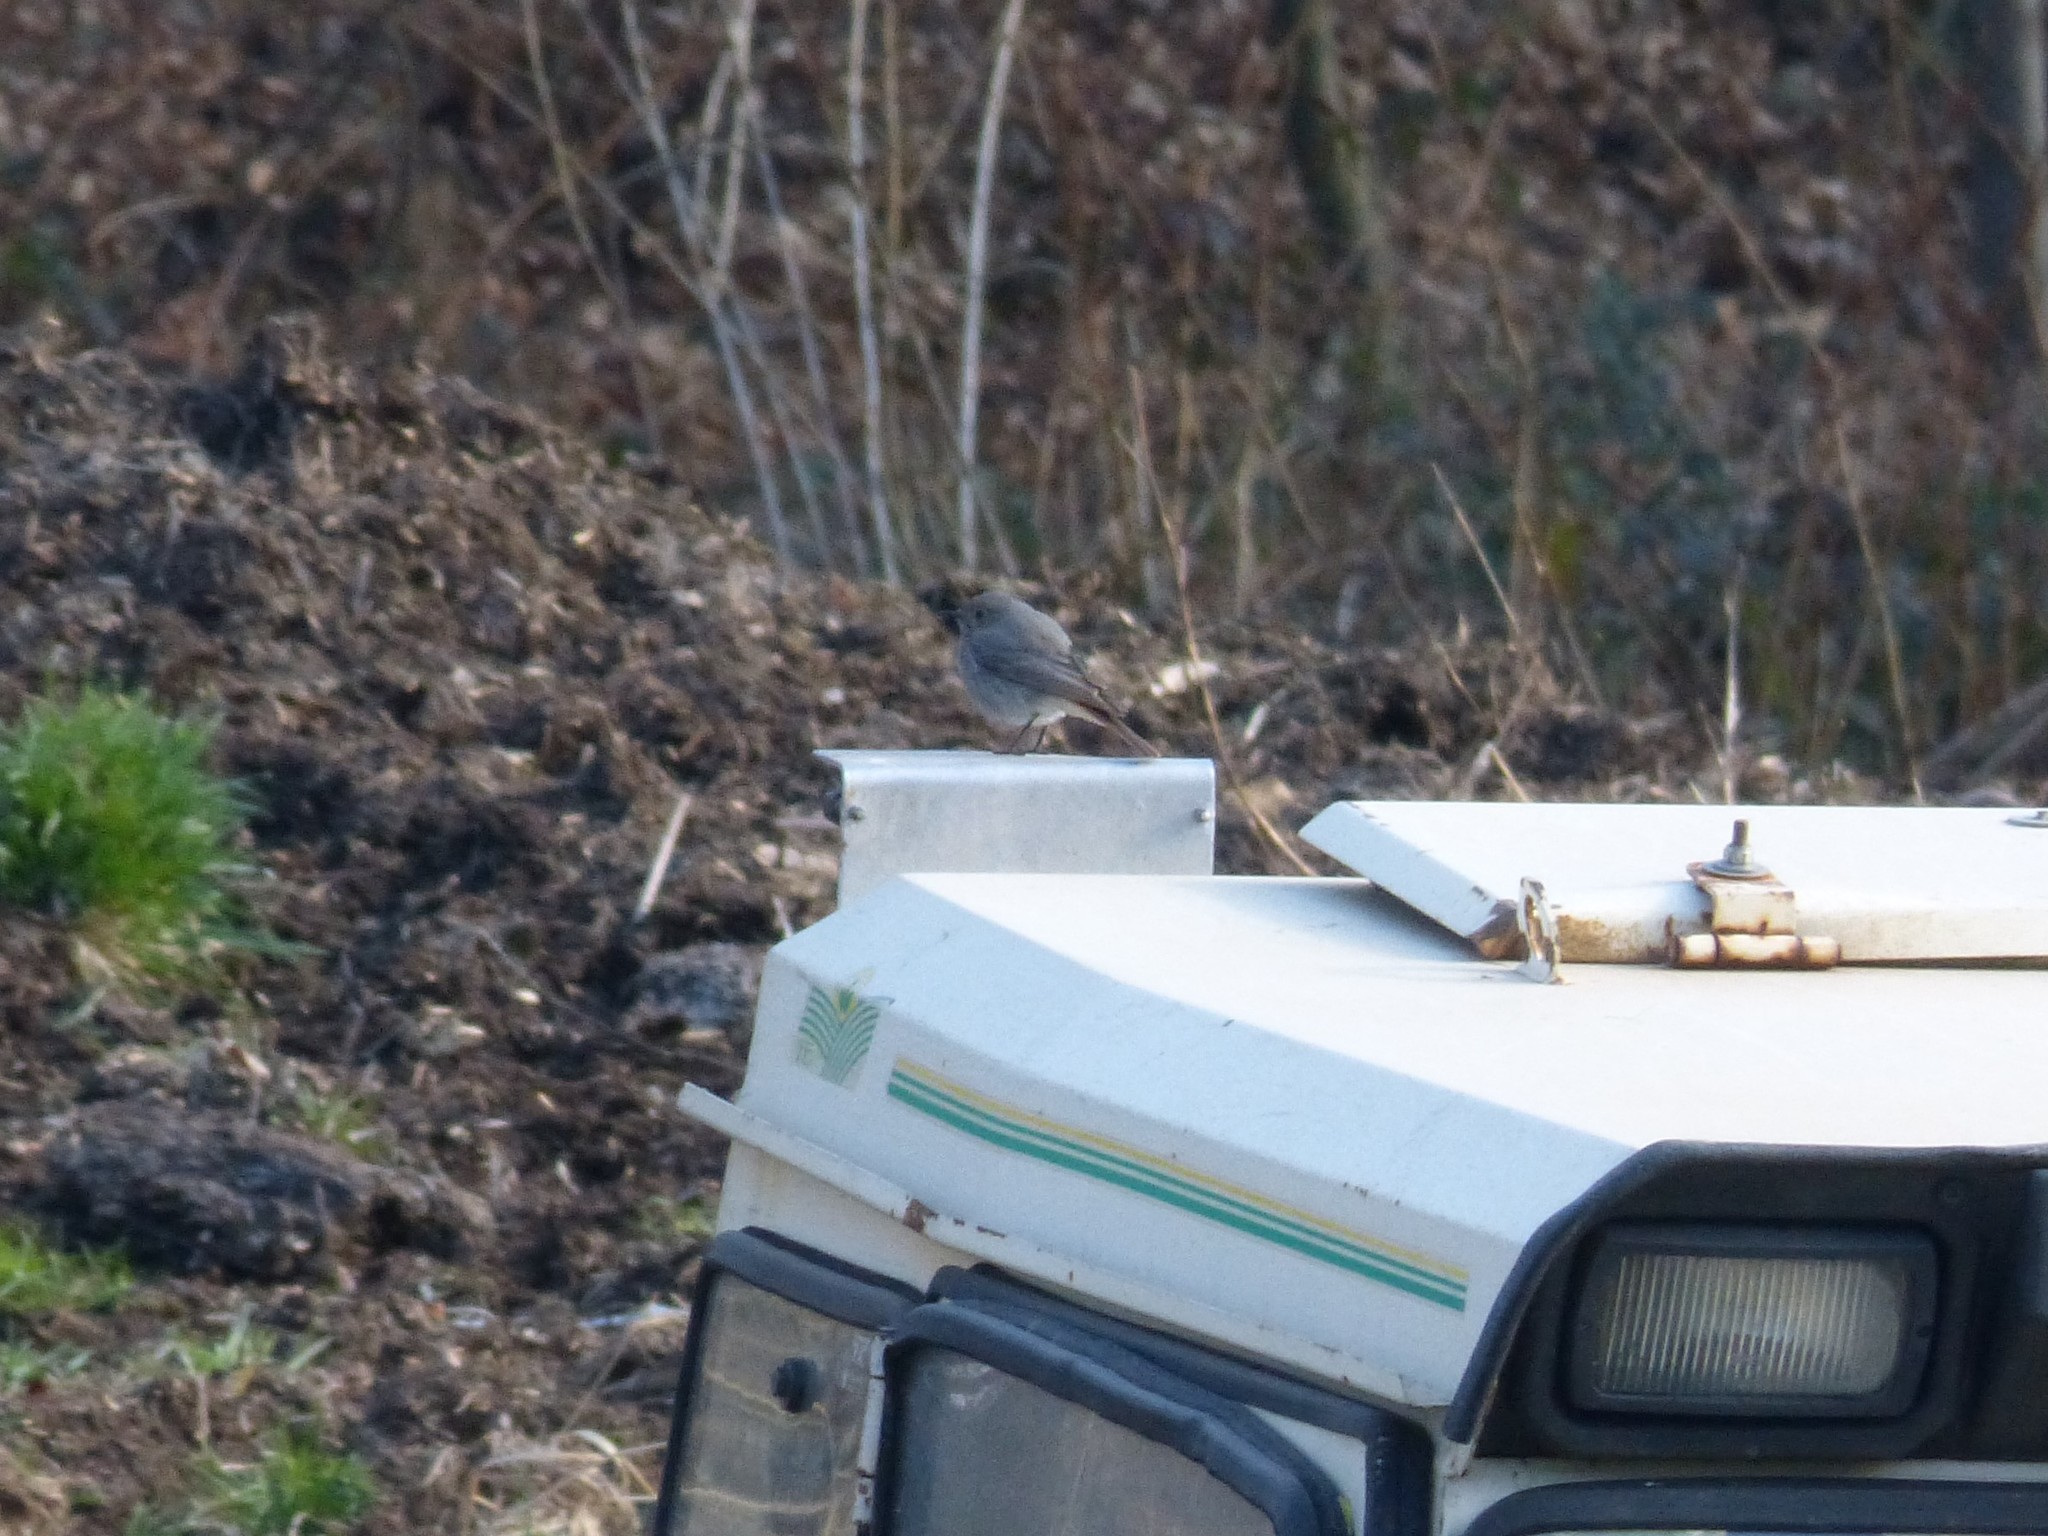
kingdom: Animalia
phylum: Chordata
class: Aves
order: Passeriformes
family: Muscicapidae
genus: Phoenicurus
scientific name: Phoenicurus ochruros
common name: Black redstart
